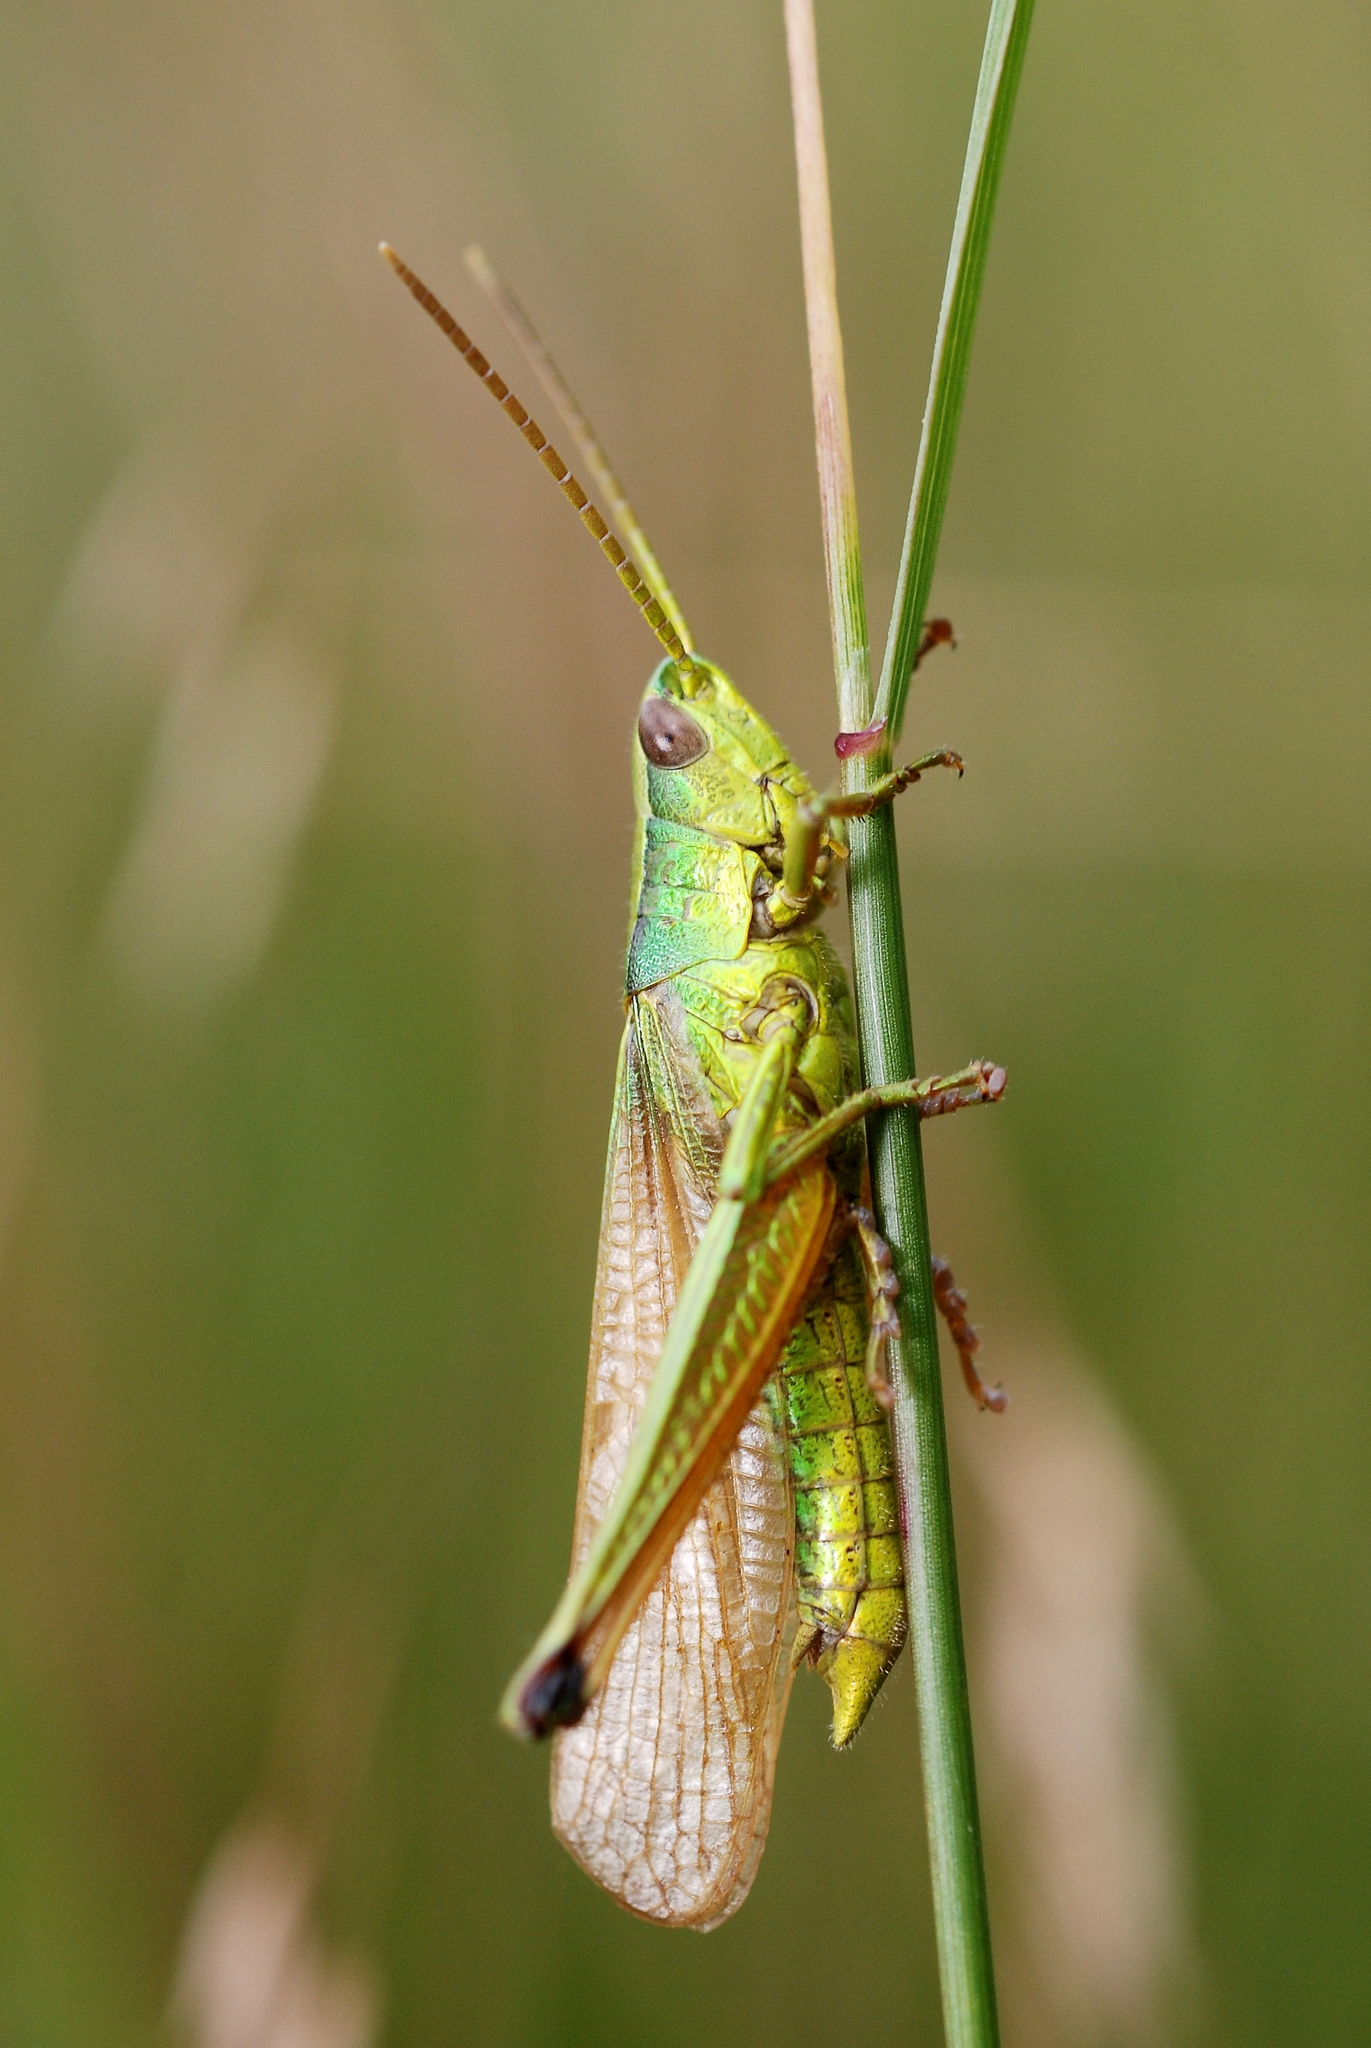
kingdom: Animalia
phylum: Arthropoda
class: Insecta
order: Orthoptera
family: Acrididae
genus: Chrysochraon
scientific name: Chrysochraon dispar
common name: Large gold grasshopper
